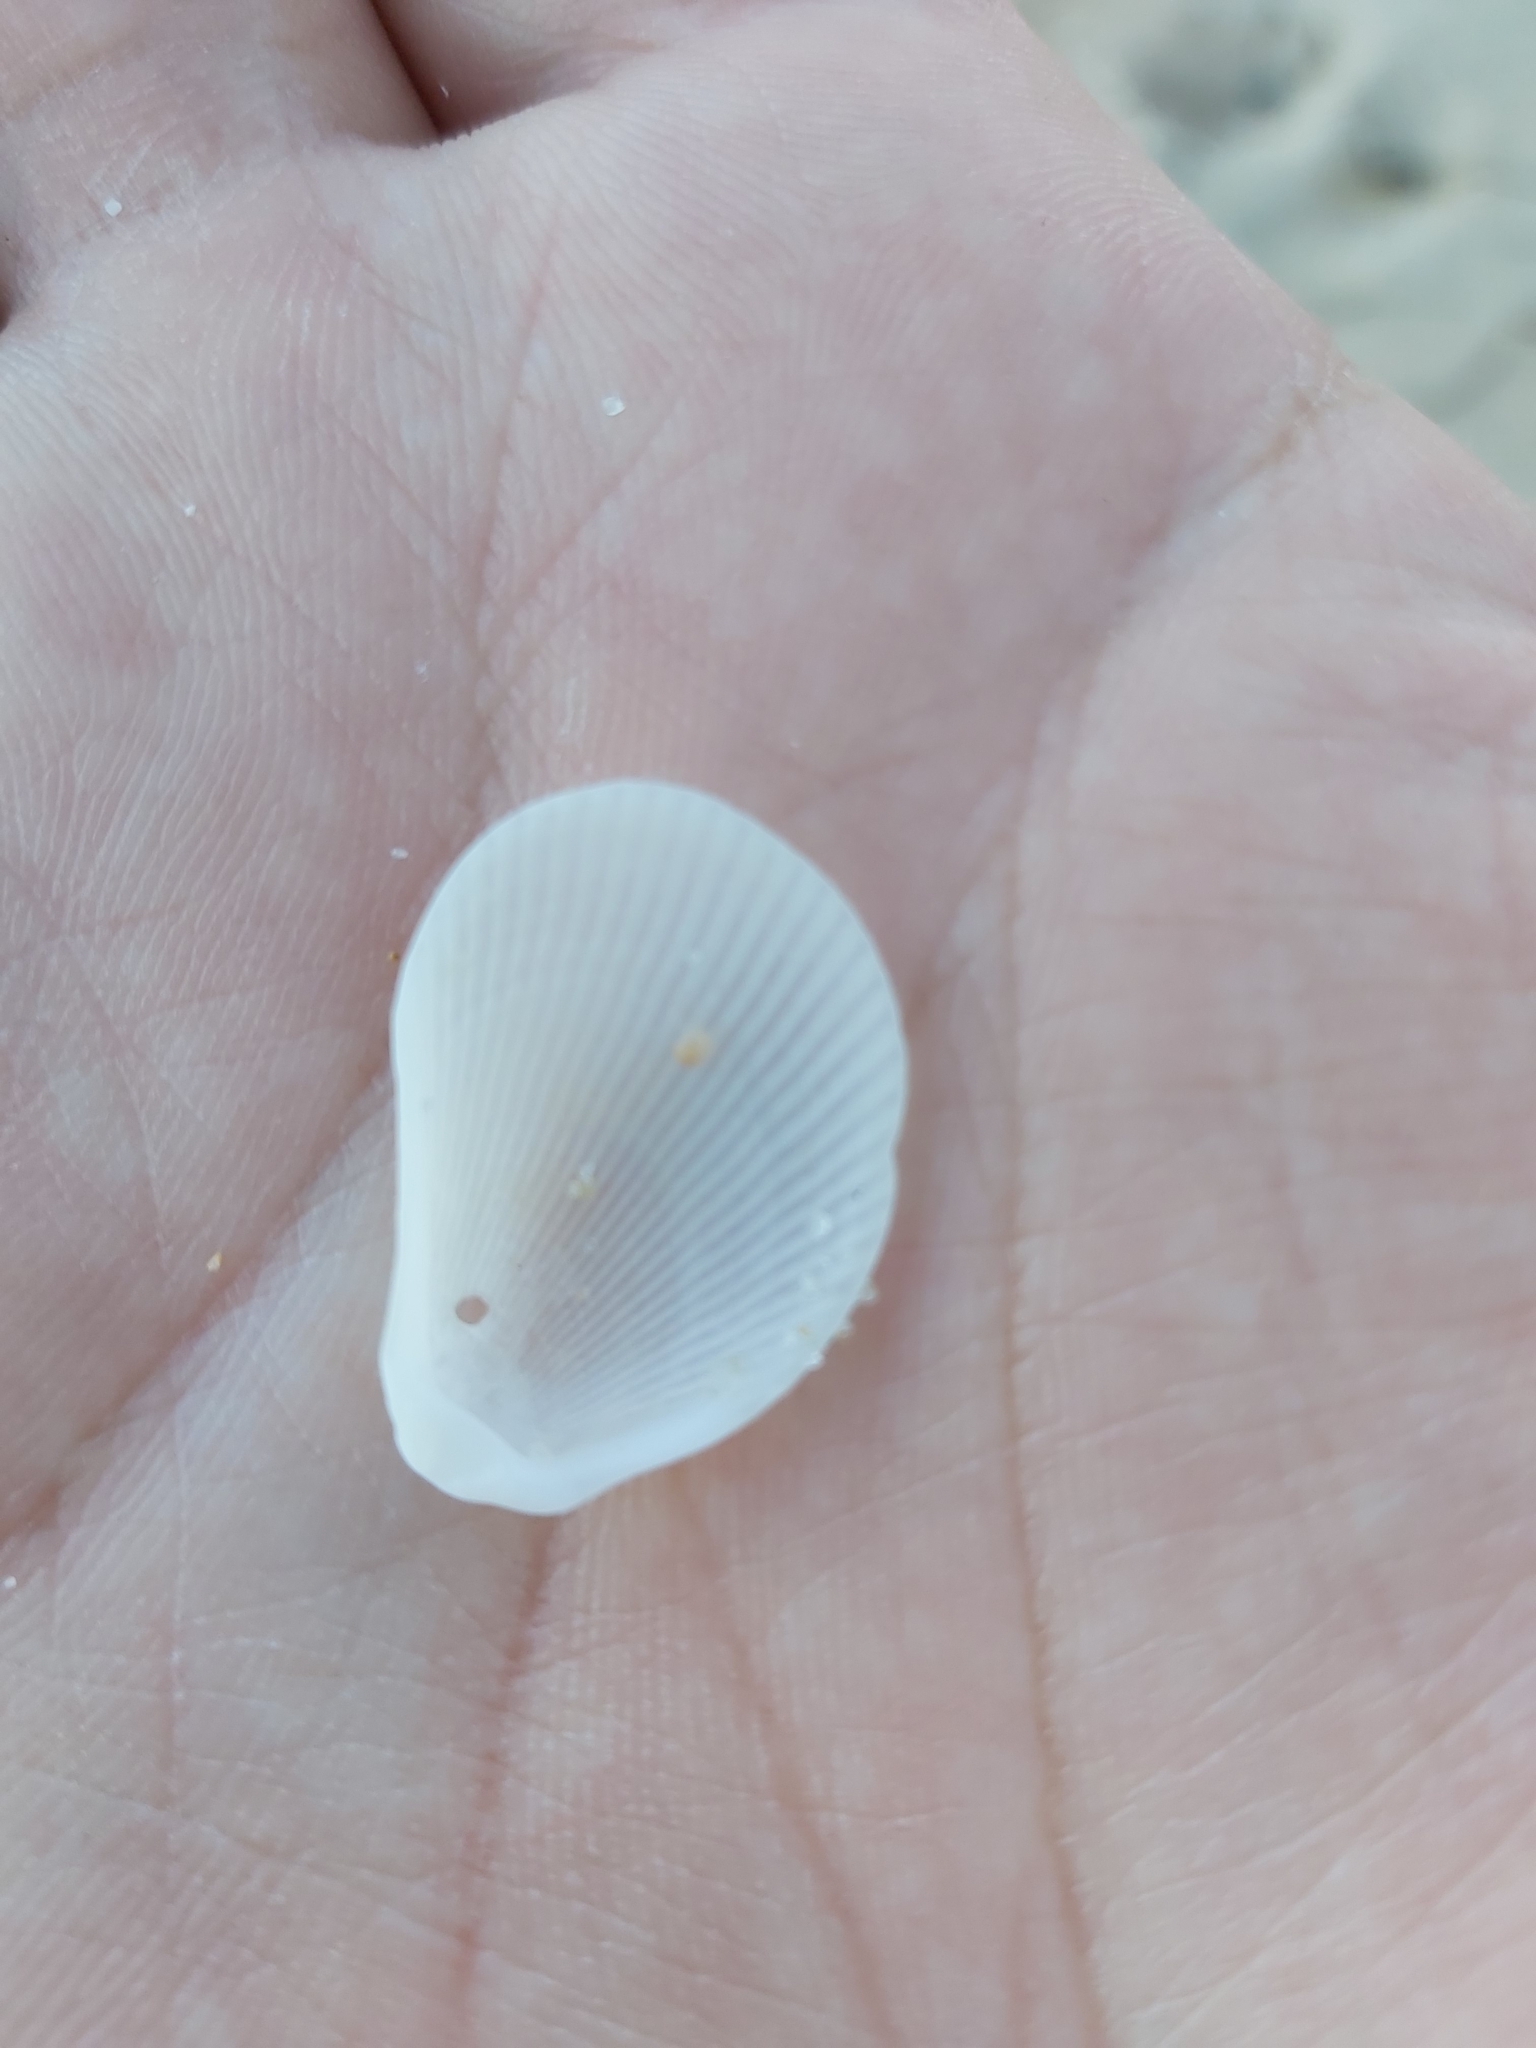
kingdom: Animalia
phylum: Mollusca
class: Bivalvia
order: Limida
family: Limidae
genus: Lima
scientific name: Lima nimbifer
